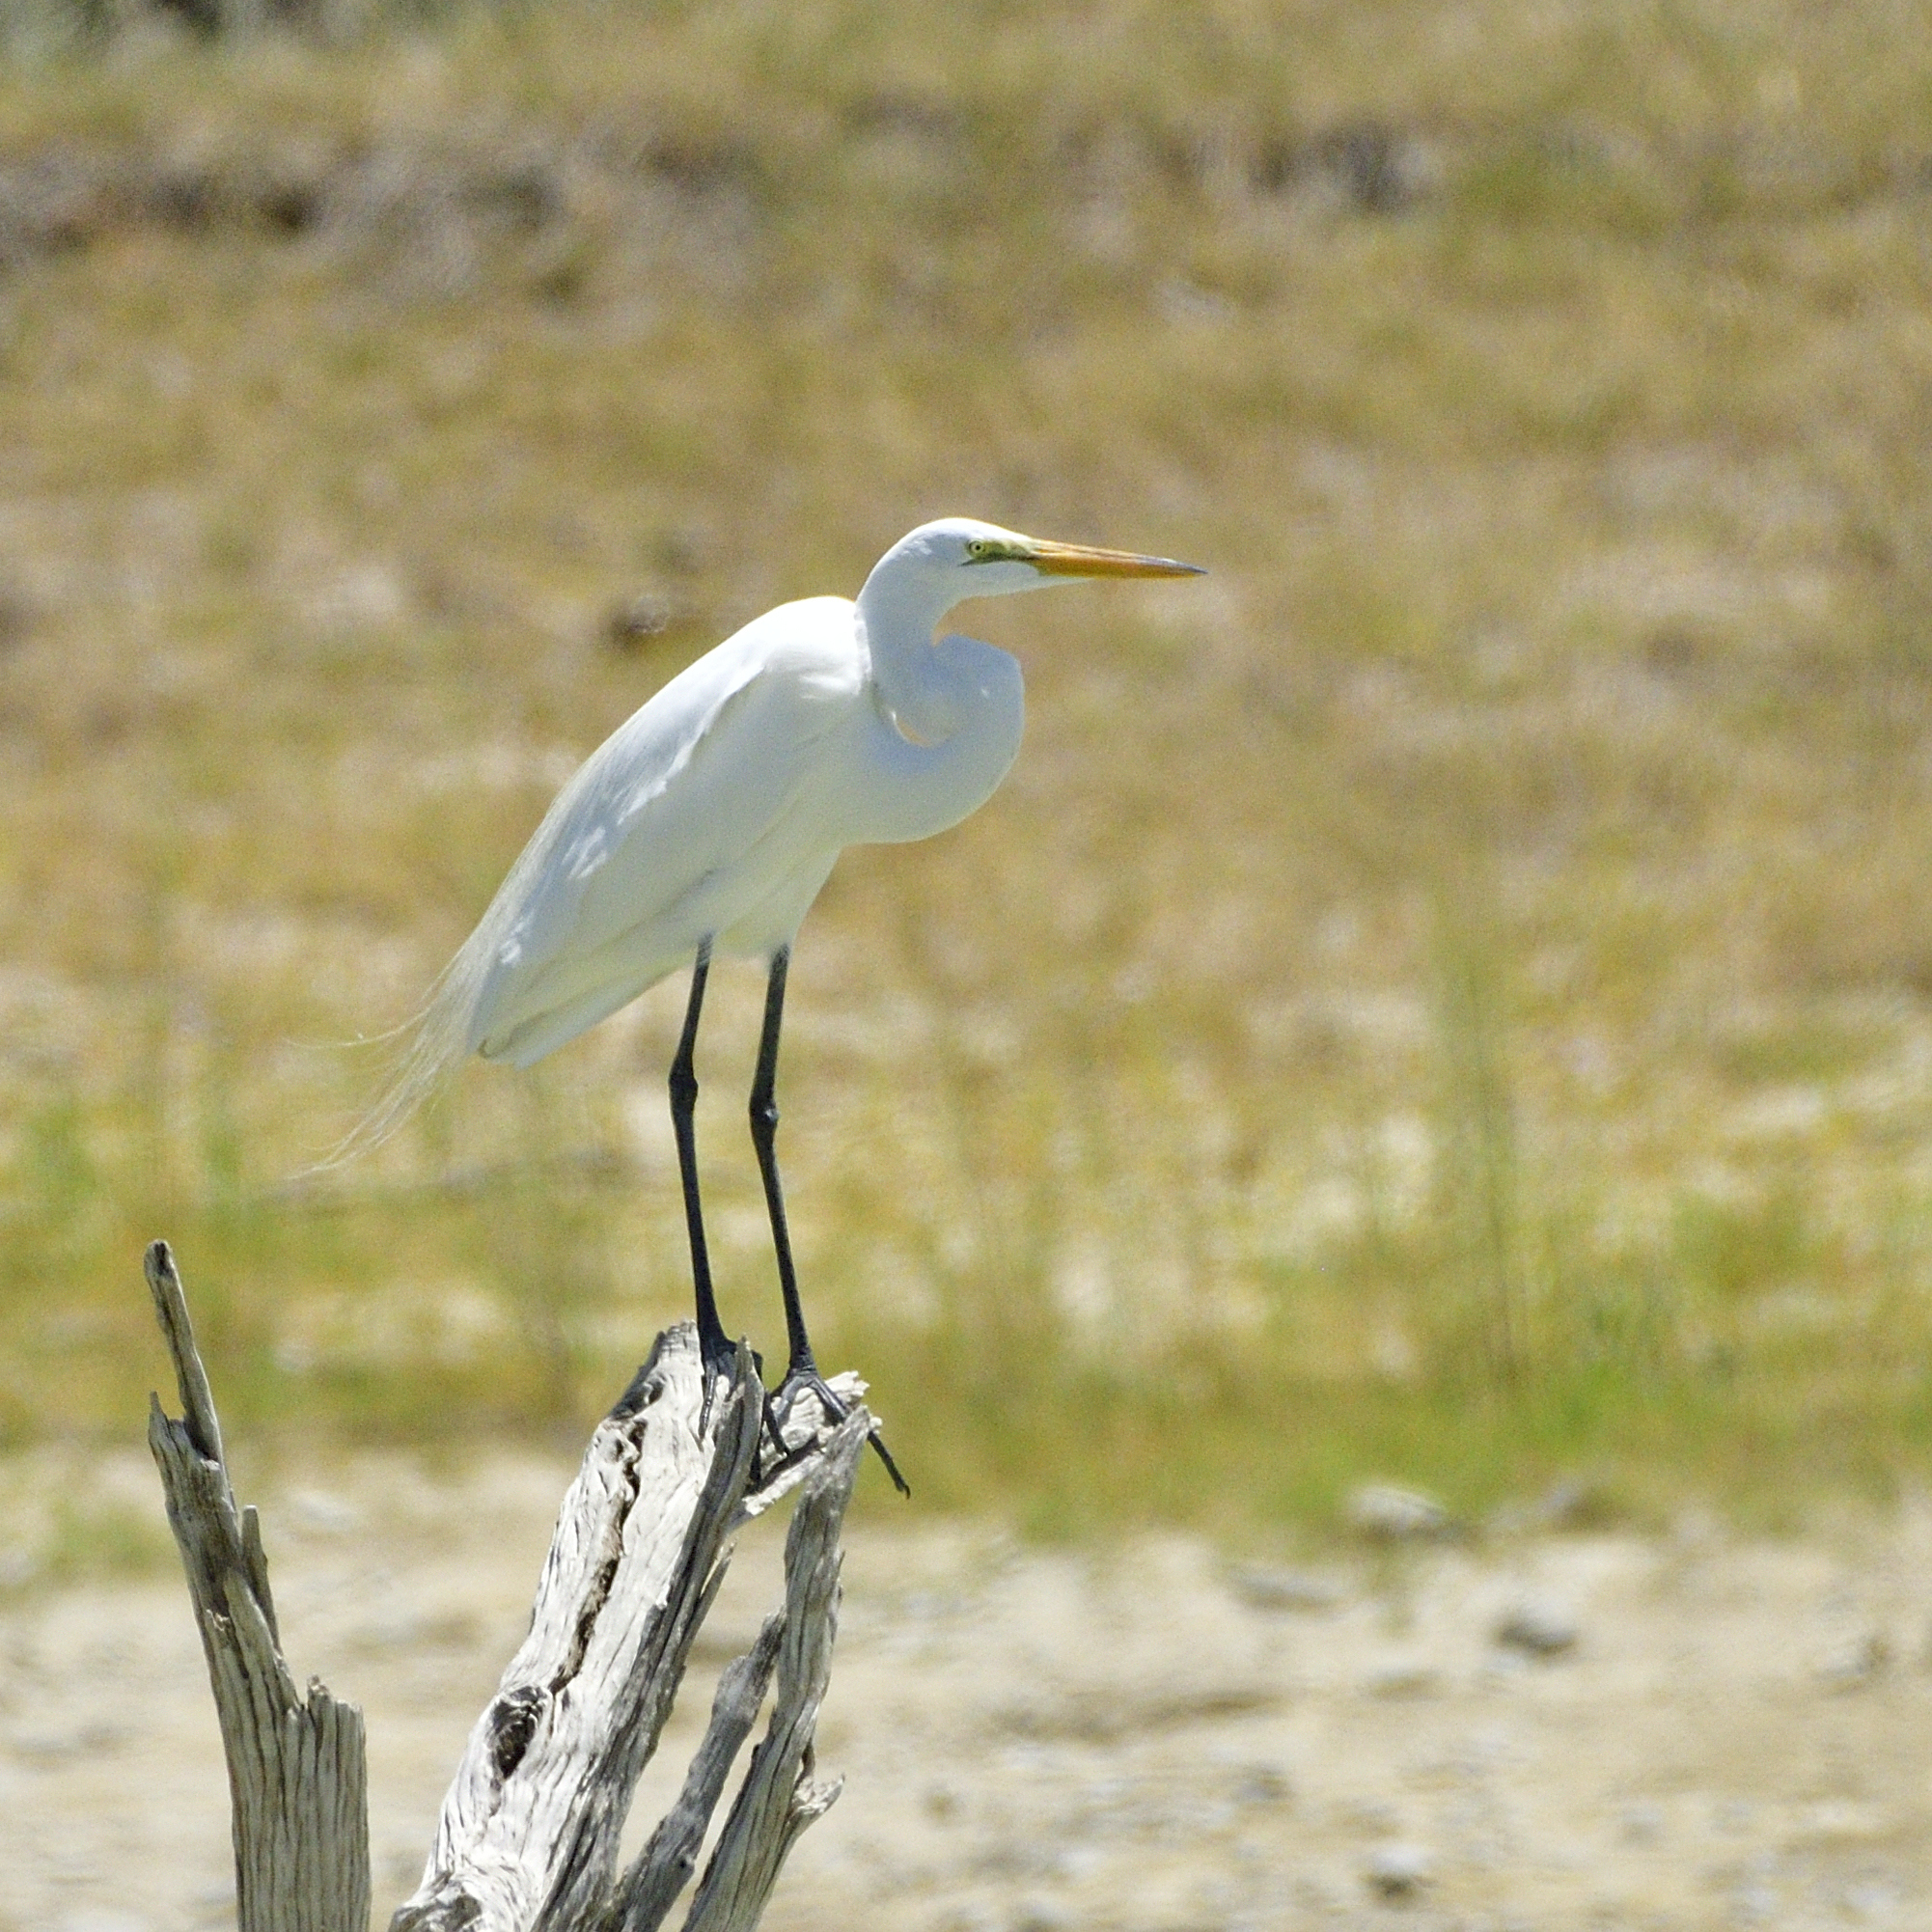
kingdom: Animalia
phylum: Chordata
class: Aves
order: Pelecaniformes
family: Ardeidae
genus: Ardea
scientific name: Ardea alba
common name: Great egret
